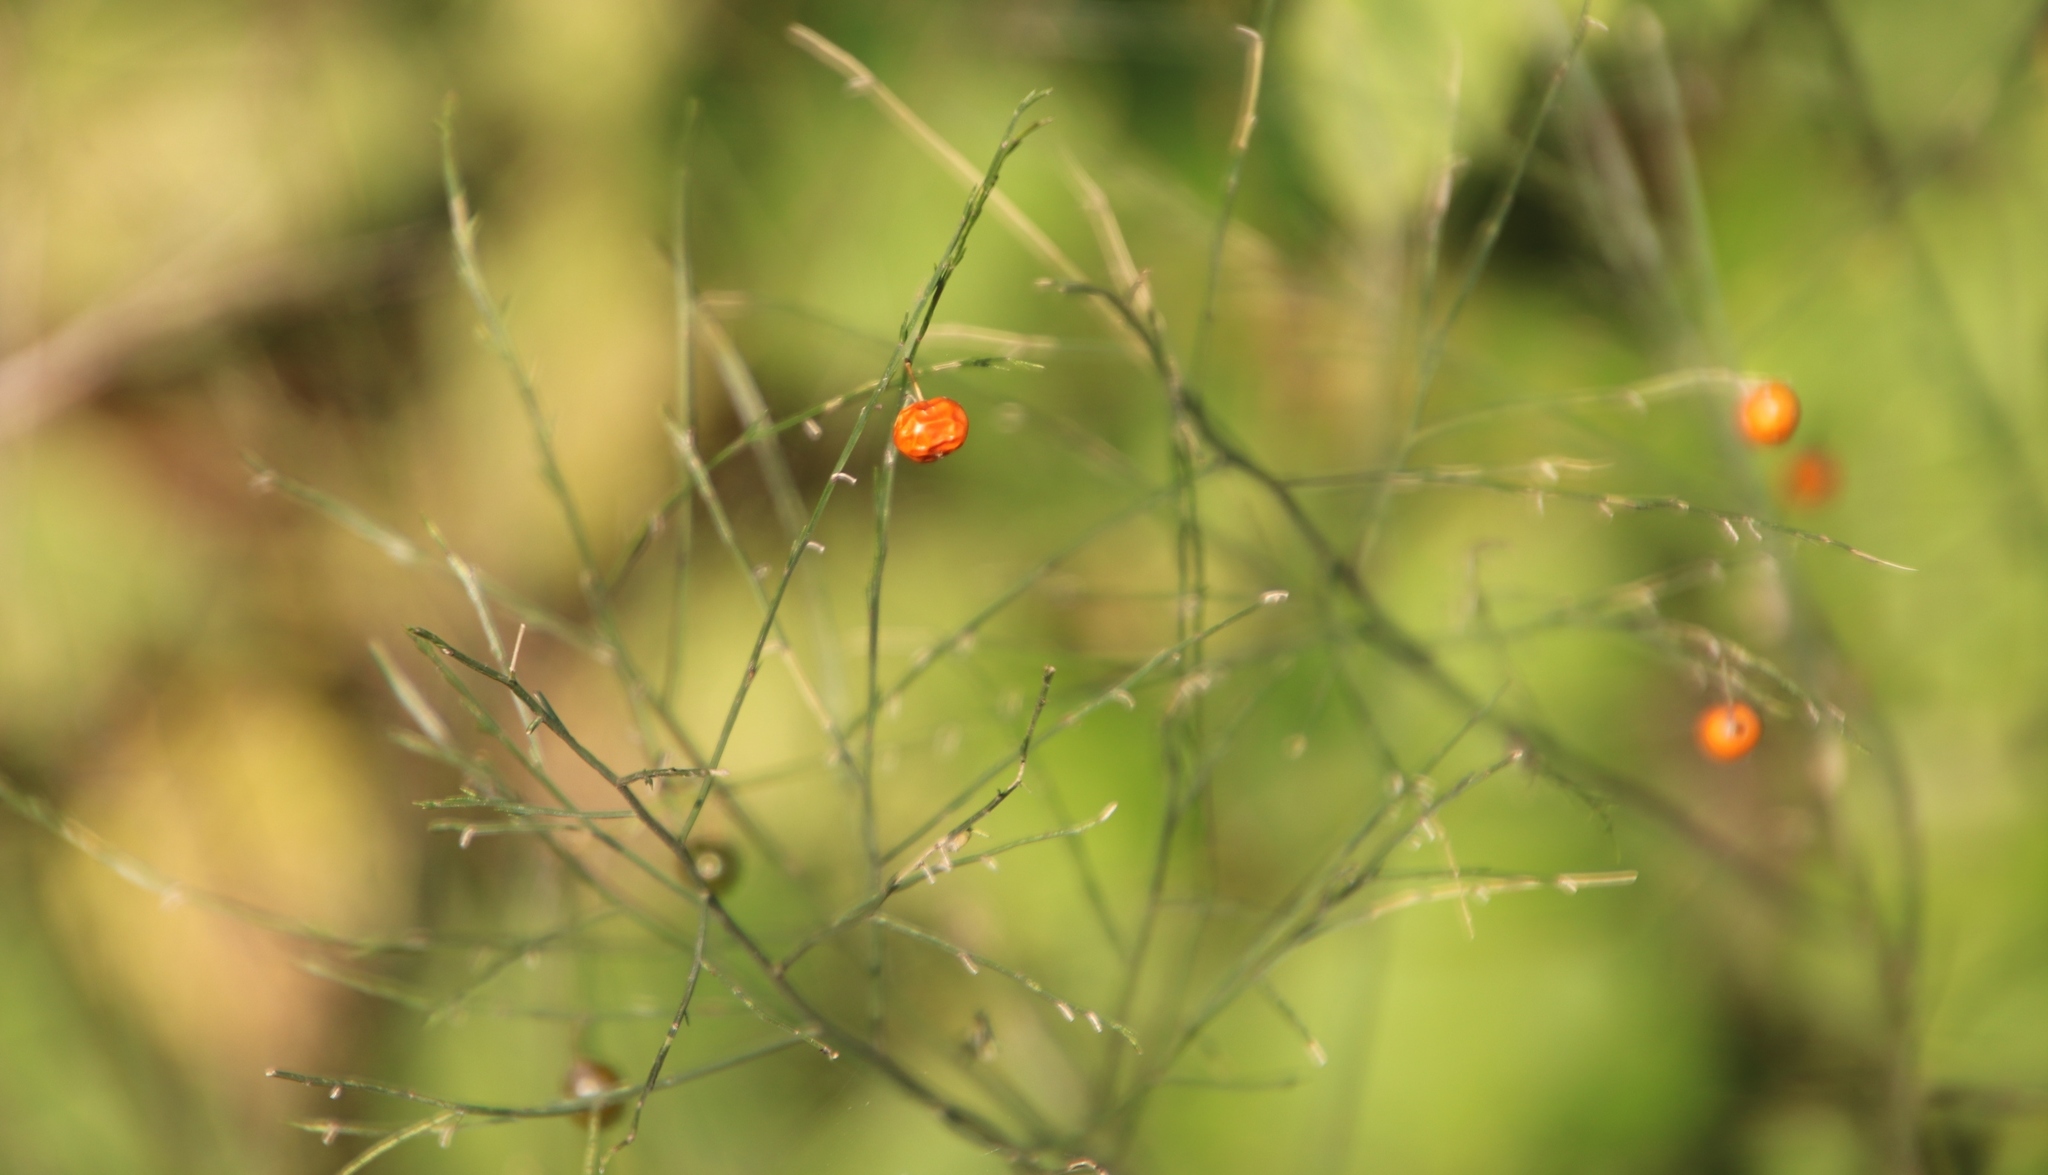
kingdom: Plantae
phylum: Tracheophyta
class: Liliopsida
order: Asparagales
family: Asparagaceae
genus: Asparagus
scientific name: Asparagus virgatus
